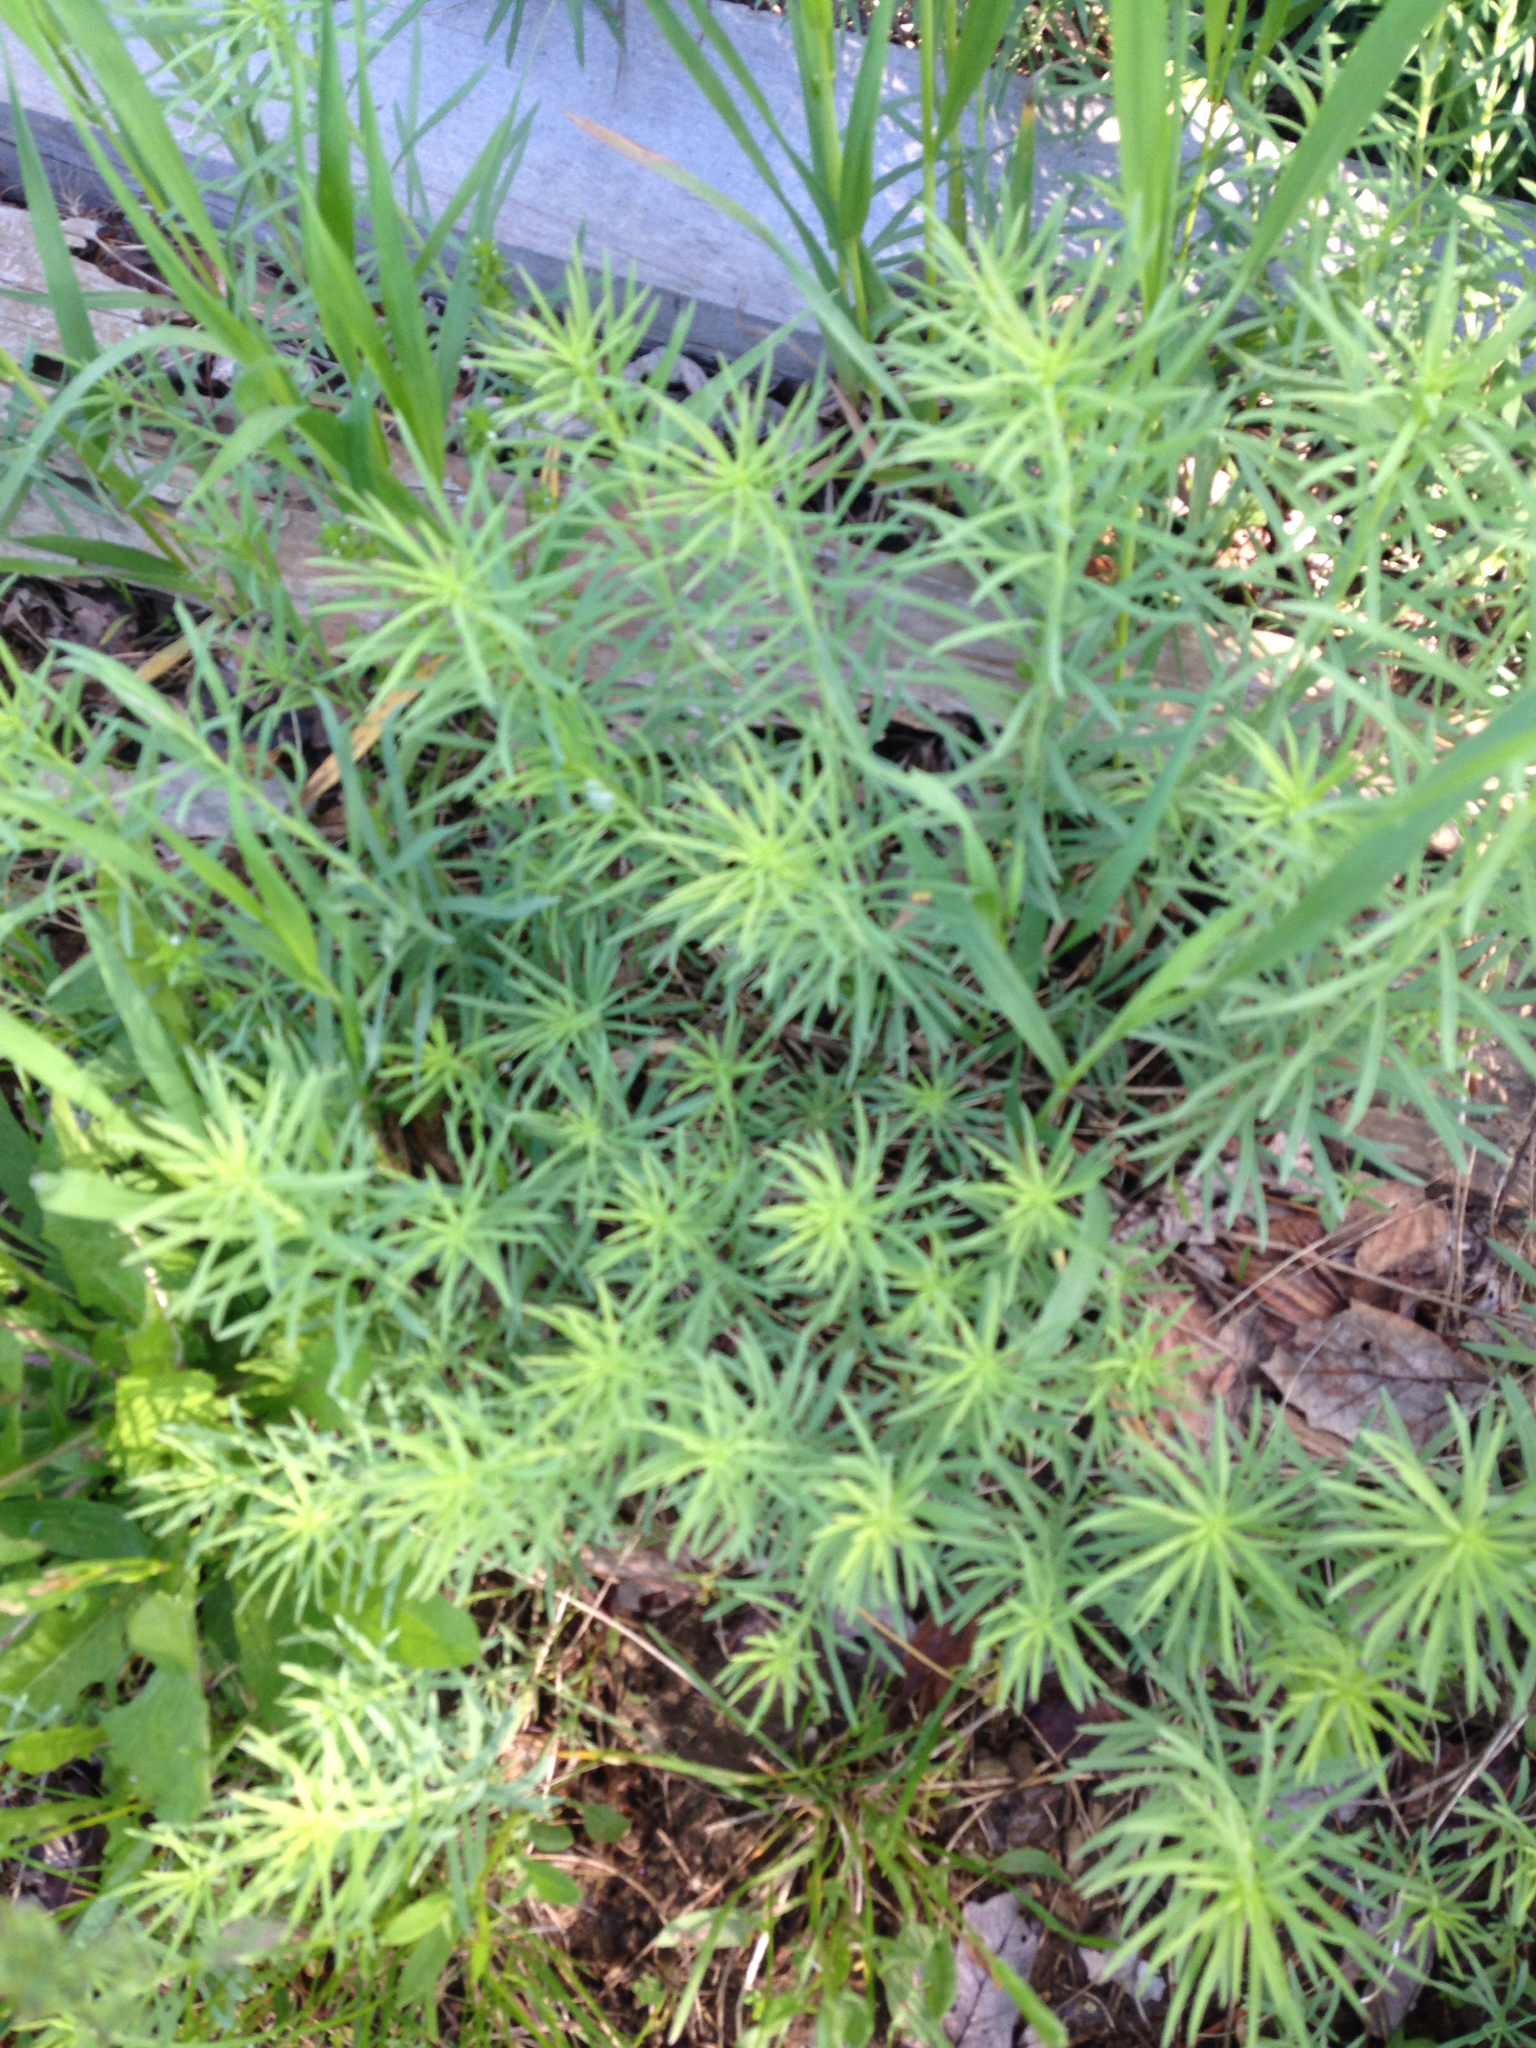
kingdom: Plantae
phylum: Tracheophyta
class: Magnoliopsida
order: Lamiales
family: Plantaginaceae
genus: Linaria
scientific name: Linaria vulgaris
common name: Butter and eggs
